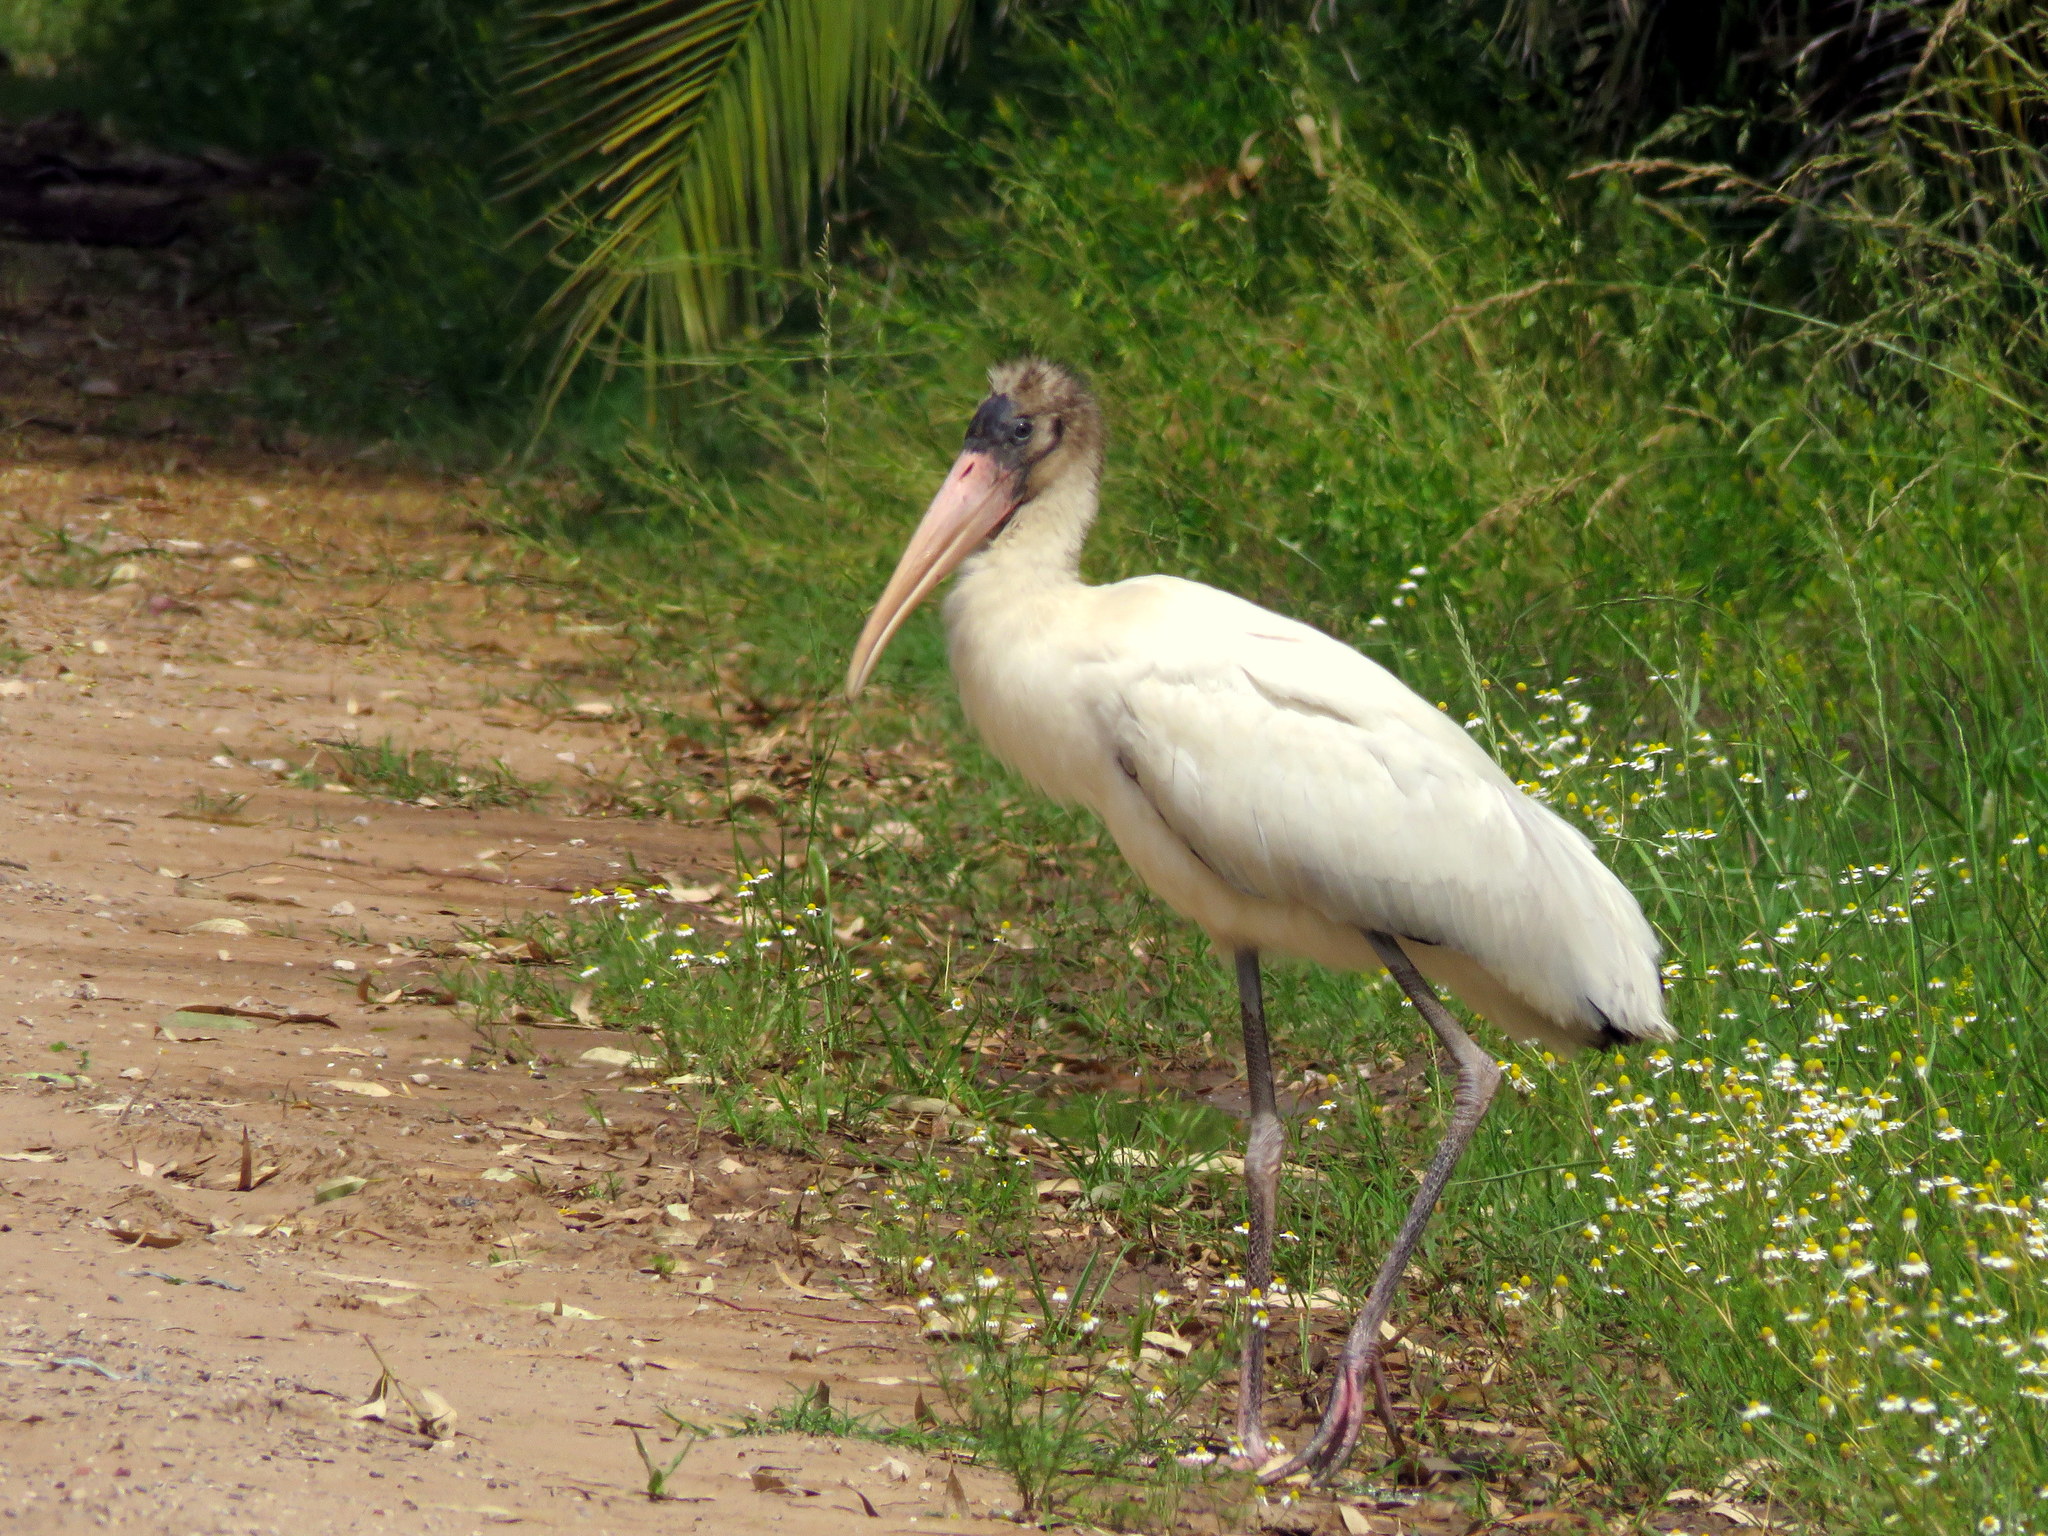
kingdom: Animalia
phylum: Chordata
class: Aves
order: Ciconiiformes
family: Ciconiidae
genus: Mycteria
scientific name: Mycteria americana
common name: Wood stork
